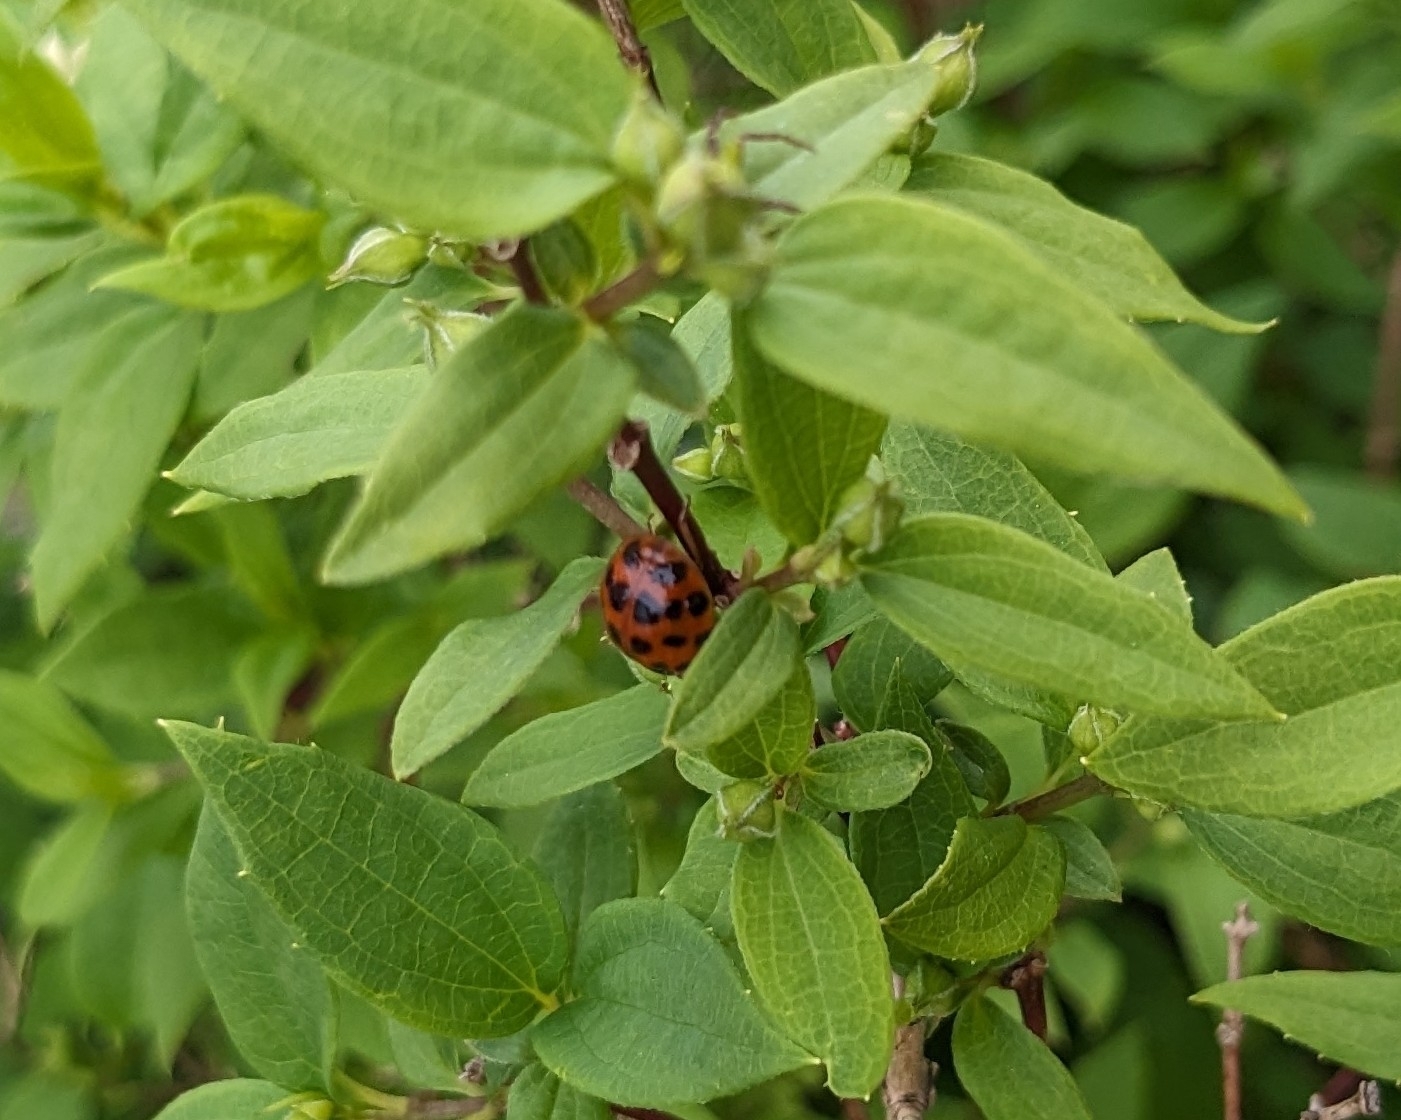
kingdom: Animalia
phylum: Arthropoda
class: Insecta
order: Coleoptera
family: Coccinellidae
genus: Harmonia
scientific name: Harmonia axyridis
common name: Harlequin ladybird
